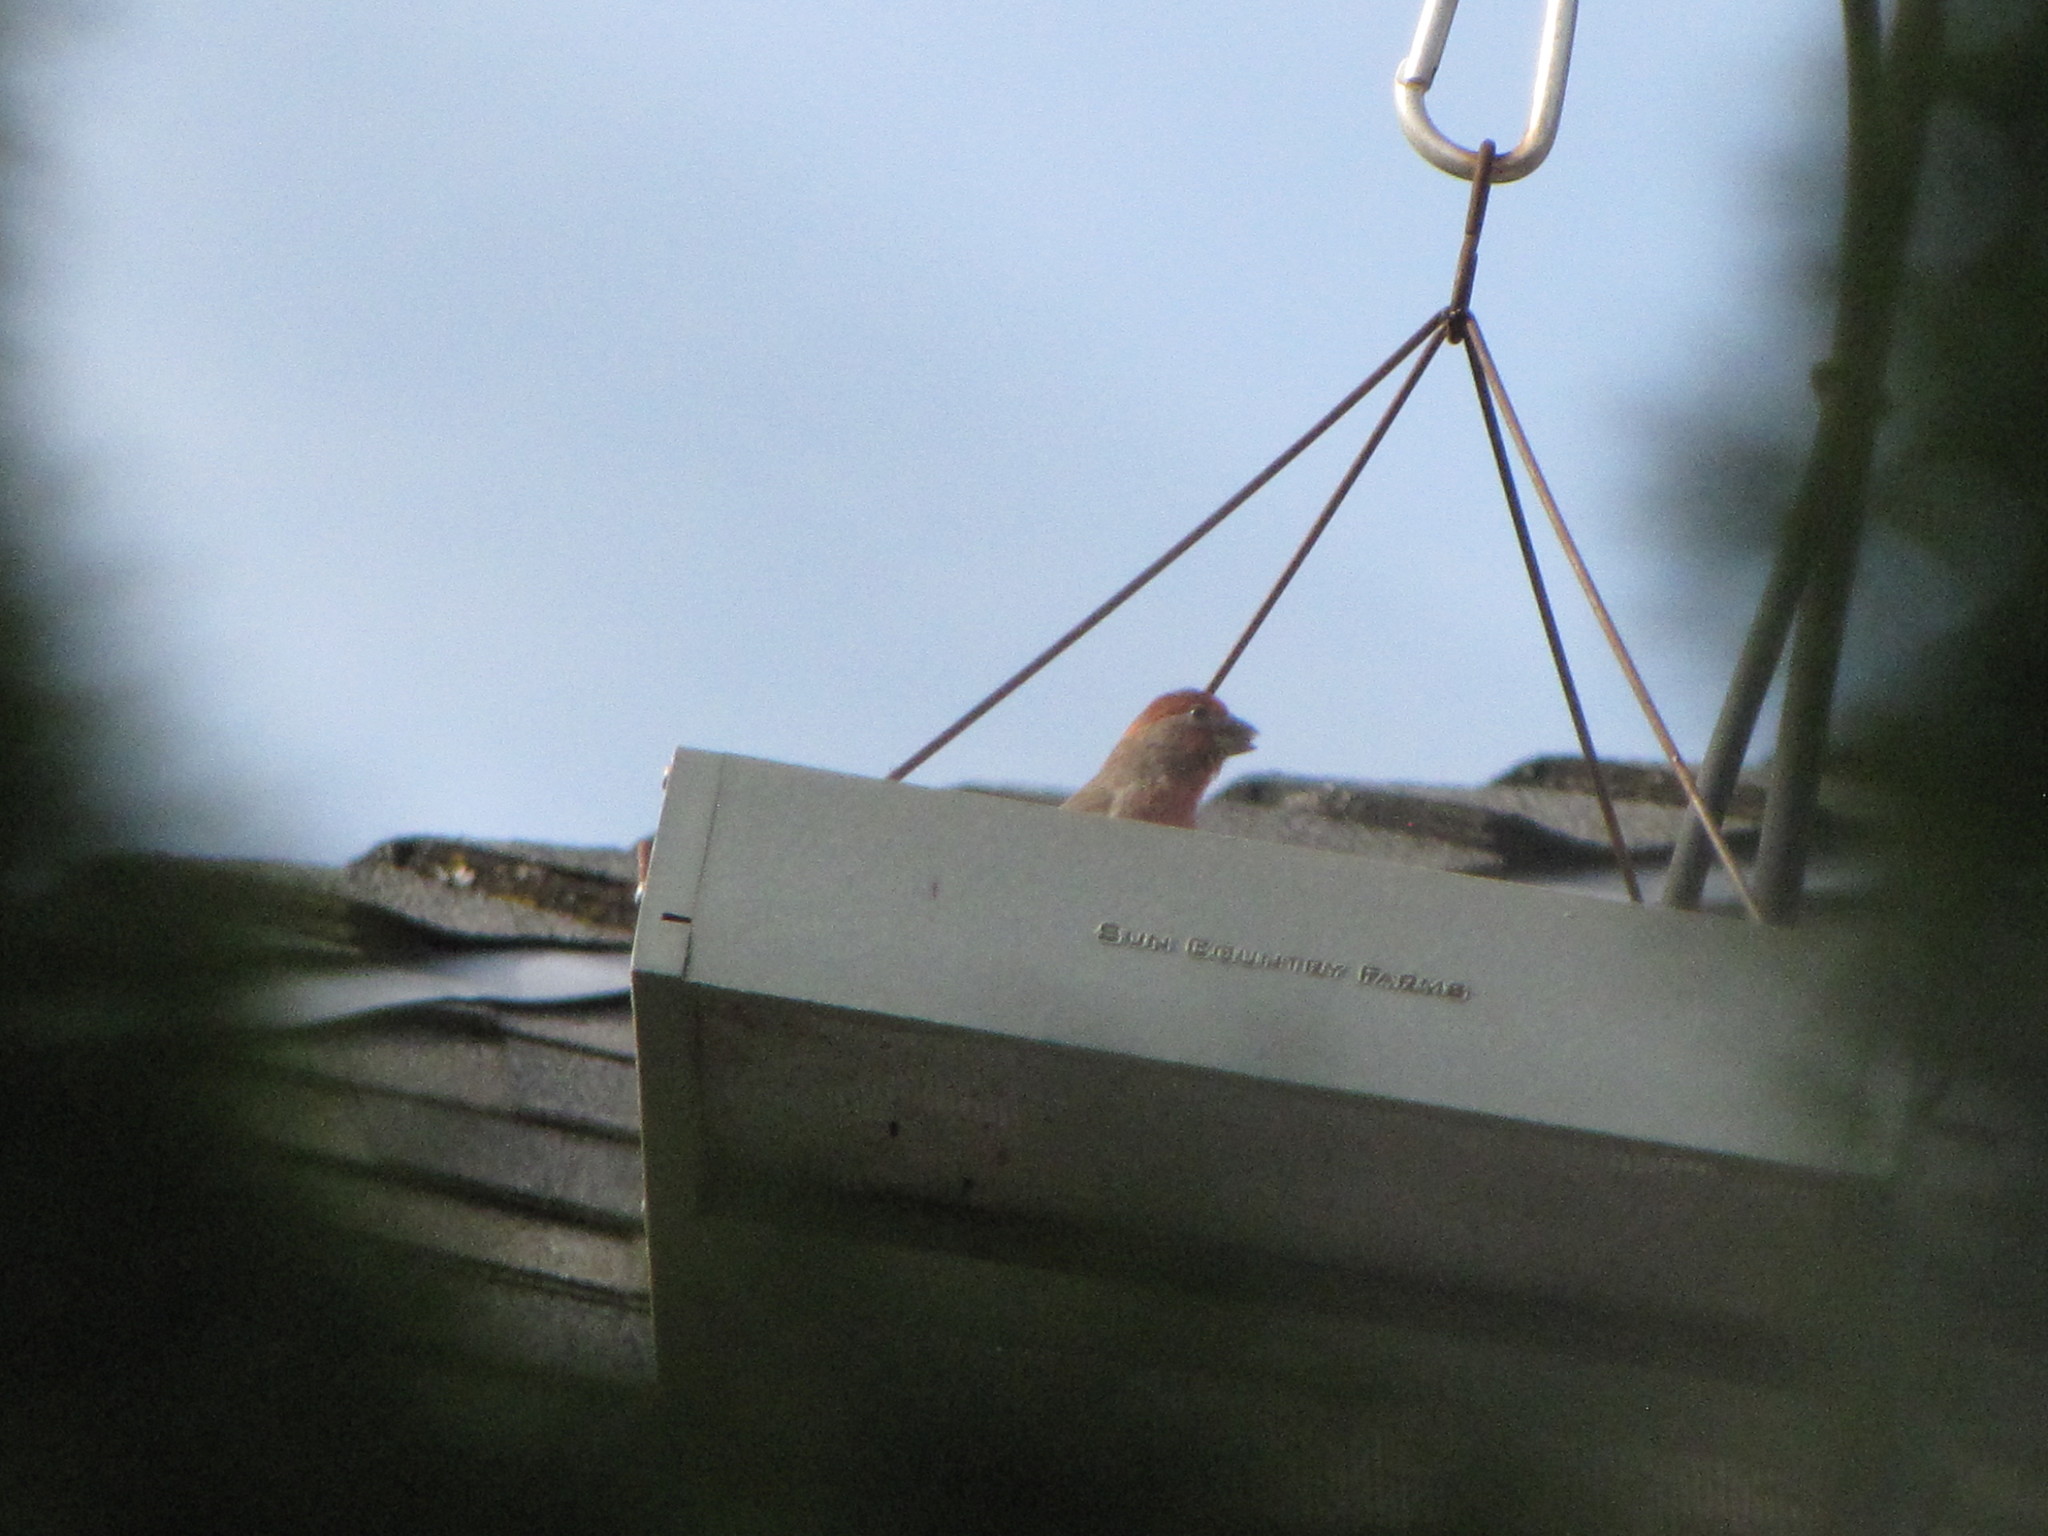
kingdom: Animalia
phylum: Chordata
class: Aves
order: Passeriformes
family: Fringillidae
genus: Haemorhous
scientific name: Haemorhous mexicanus
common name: House finch
